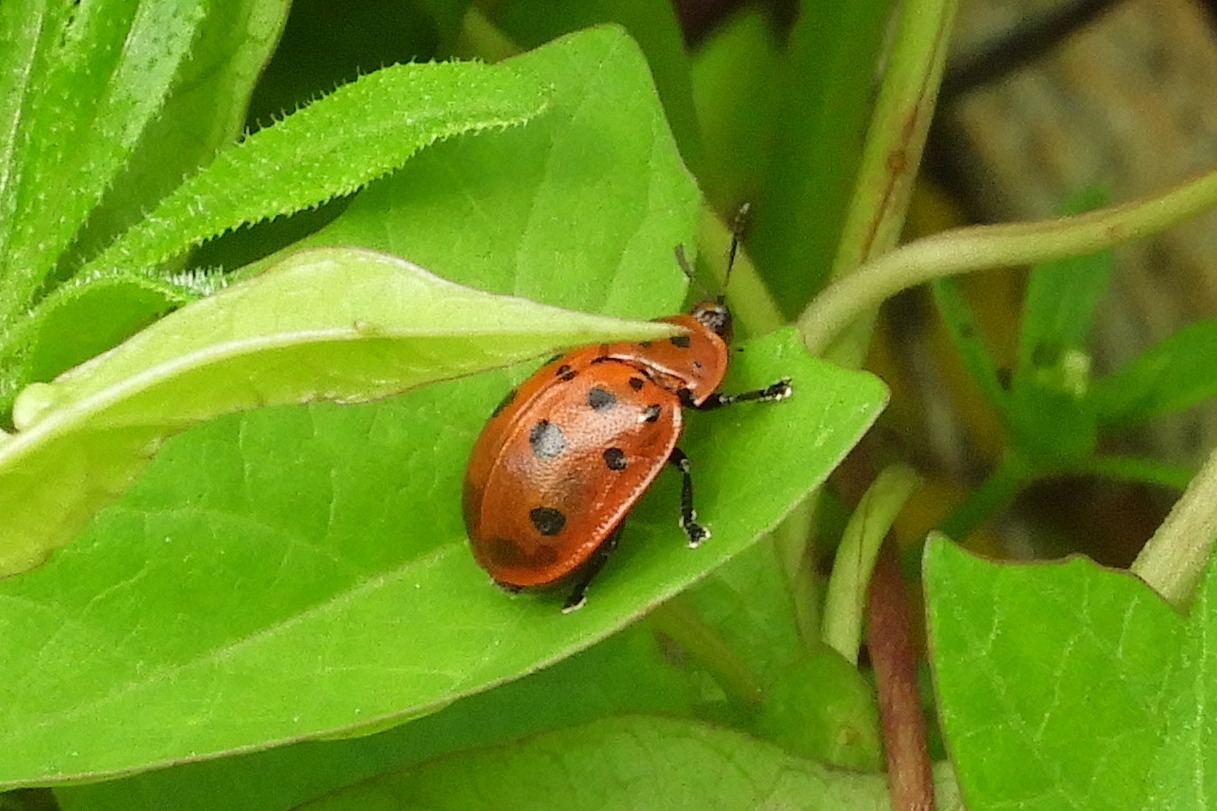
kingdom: Animalia
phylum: Arthropoda
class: Insecta
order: Coleoptera
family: Chrysomelidae
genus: Chelymorpha
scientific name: Chelymorpha cassidea
